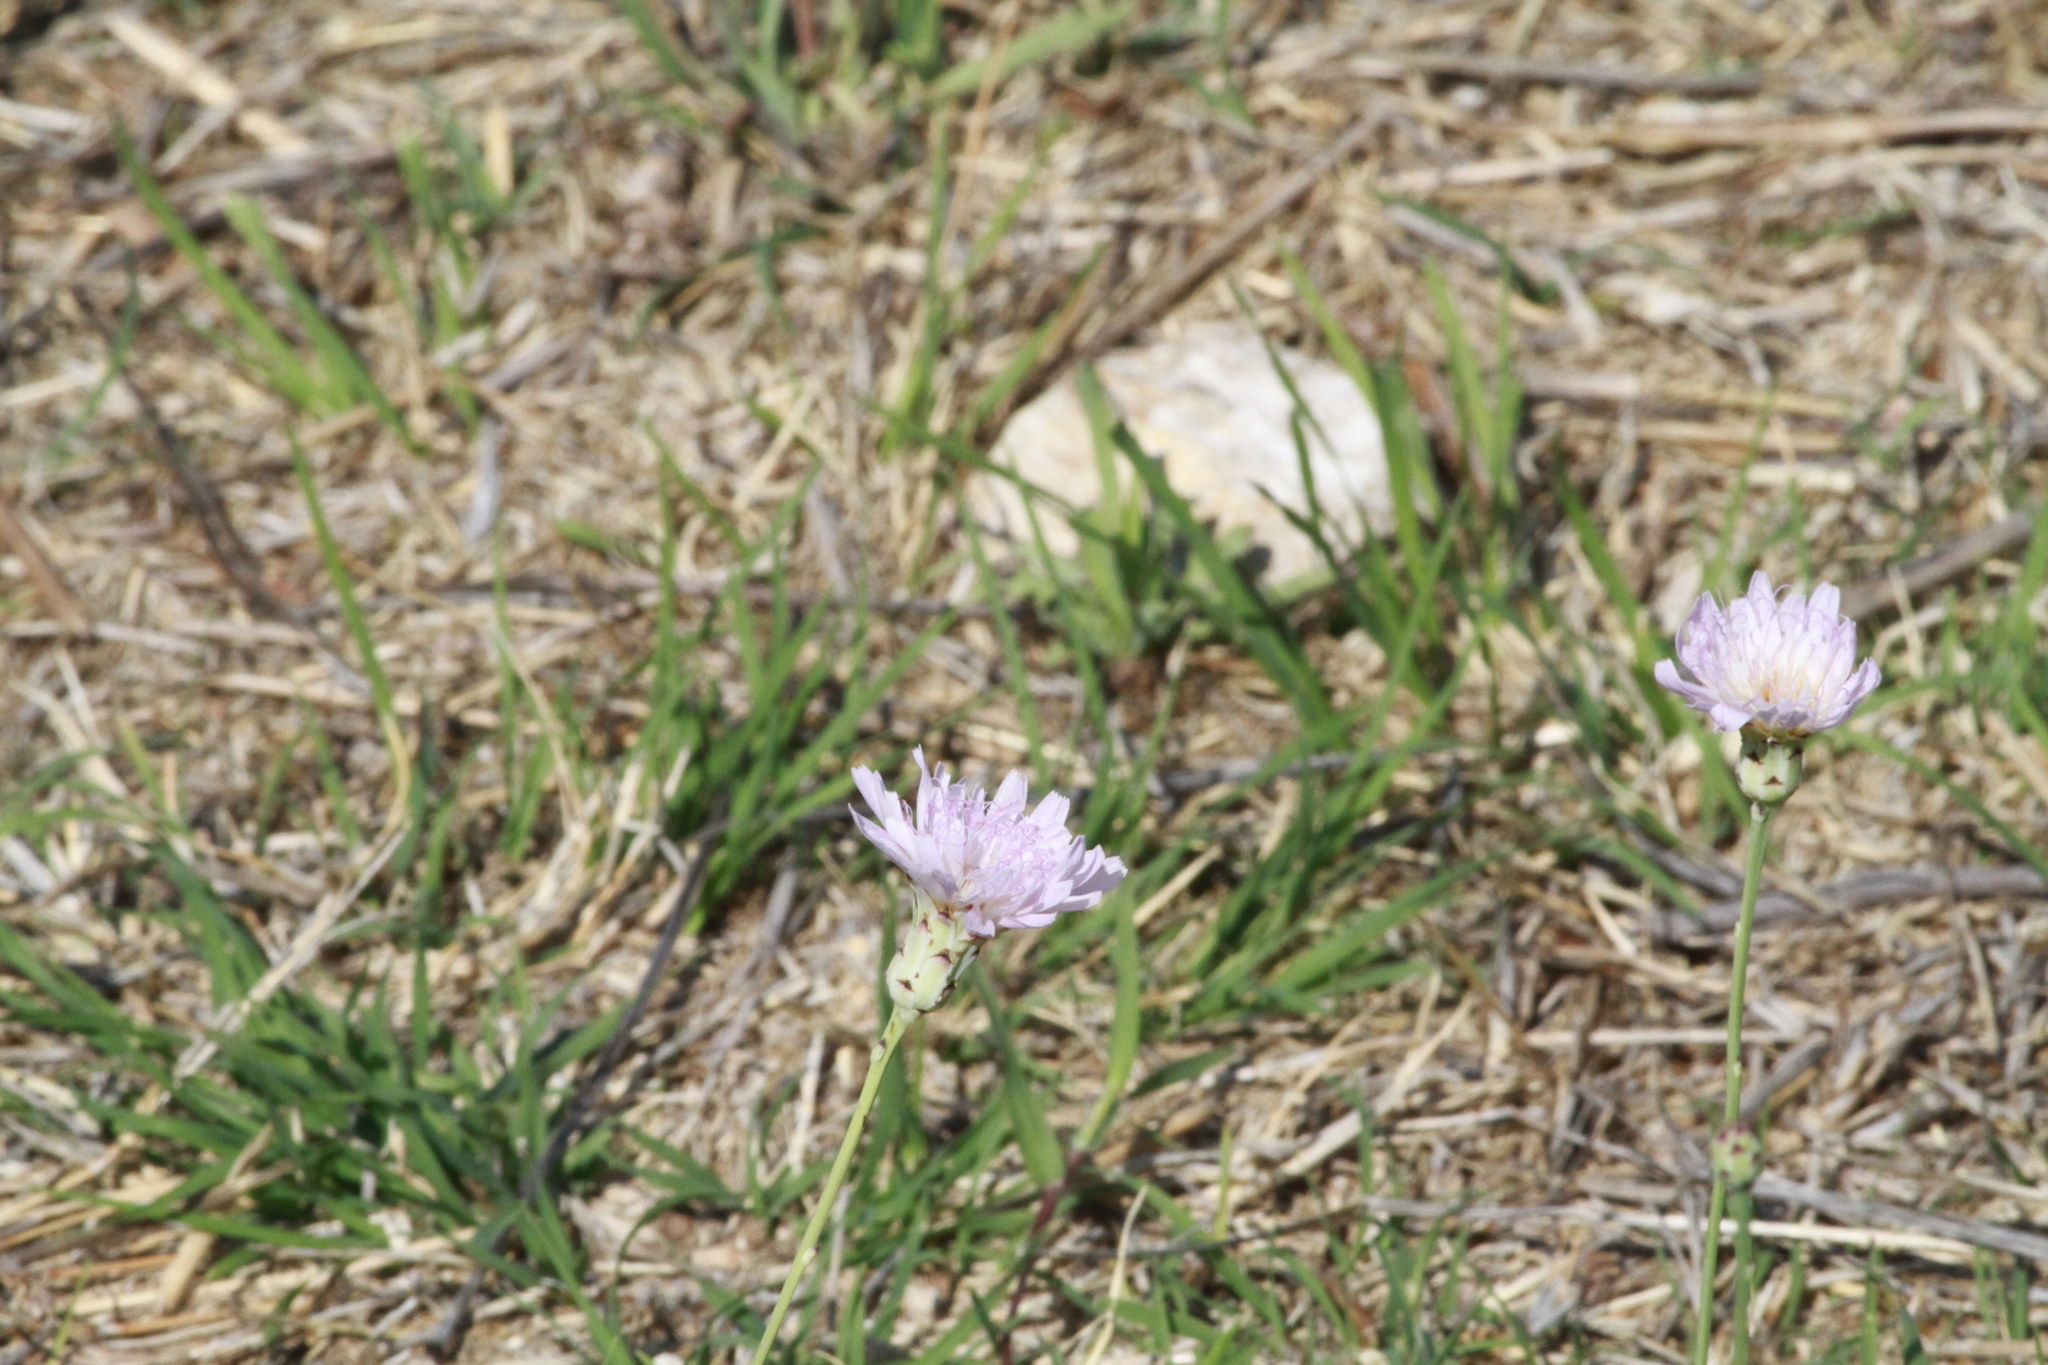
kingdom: Plantae
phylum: Tracheophyta
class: Magnoliopsida
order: Asterales
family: Asteraceae
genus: Pinaropappus
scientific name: Pinaropappus roseus
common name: Rock-lettuce
